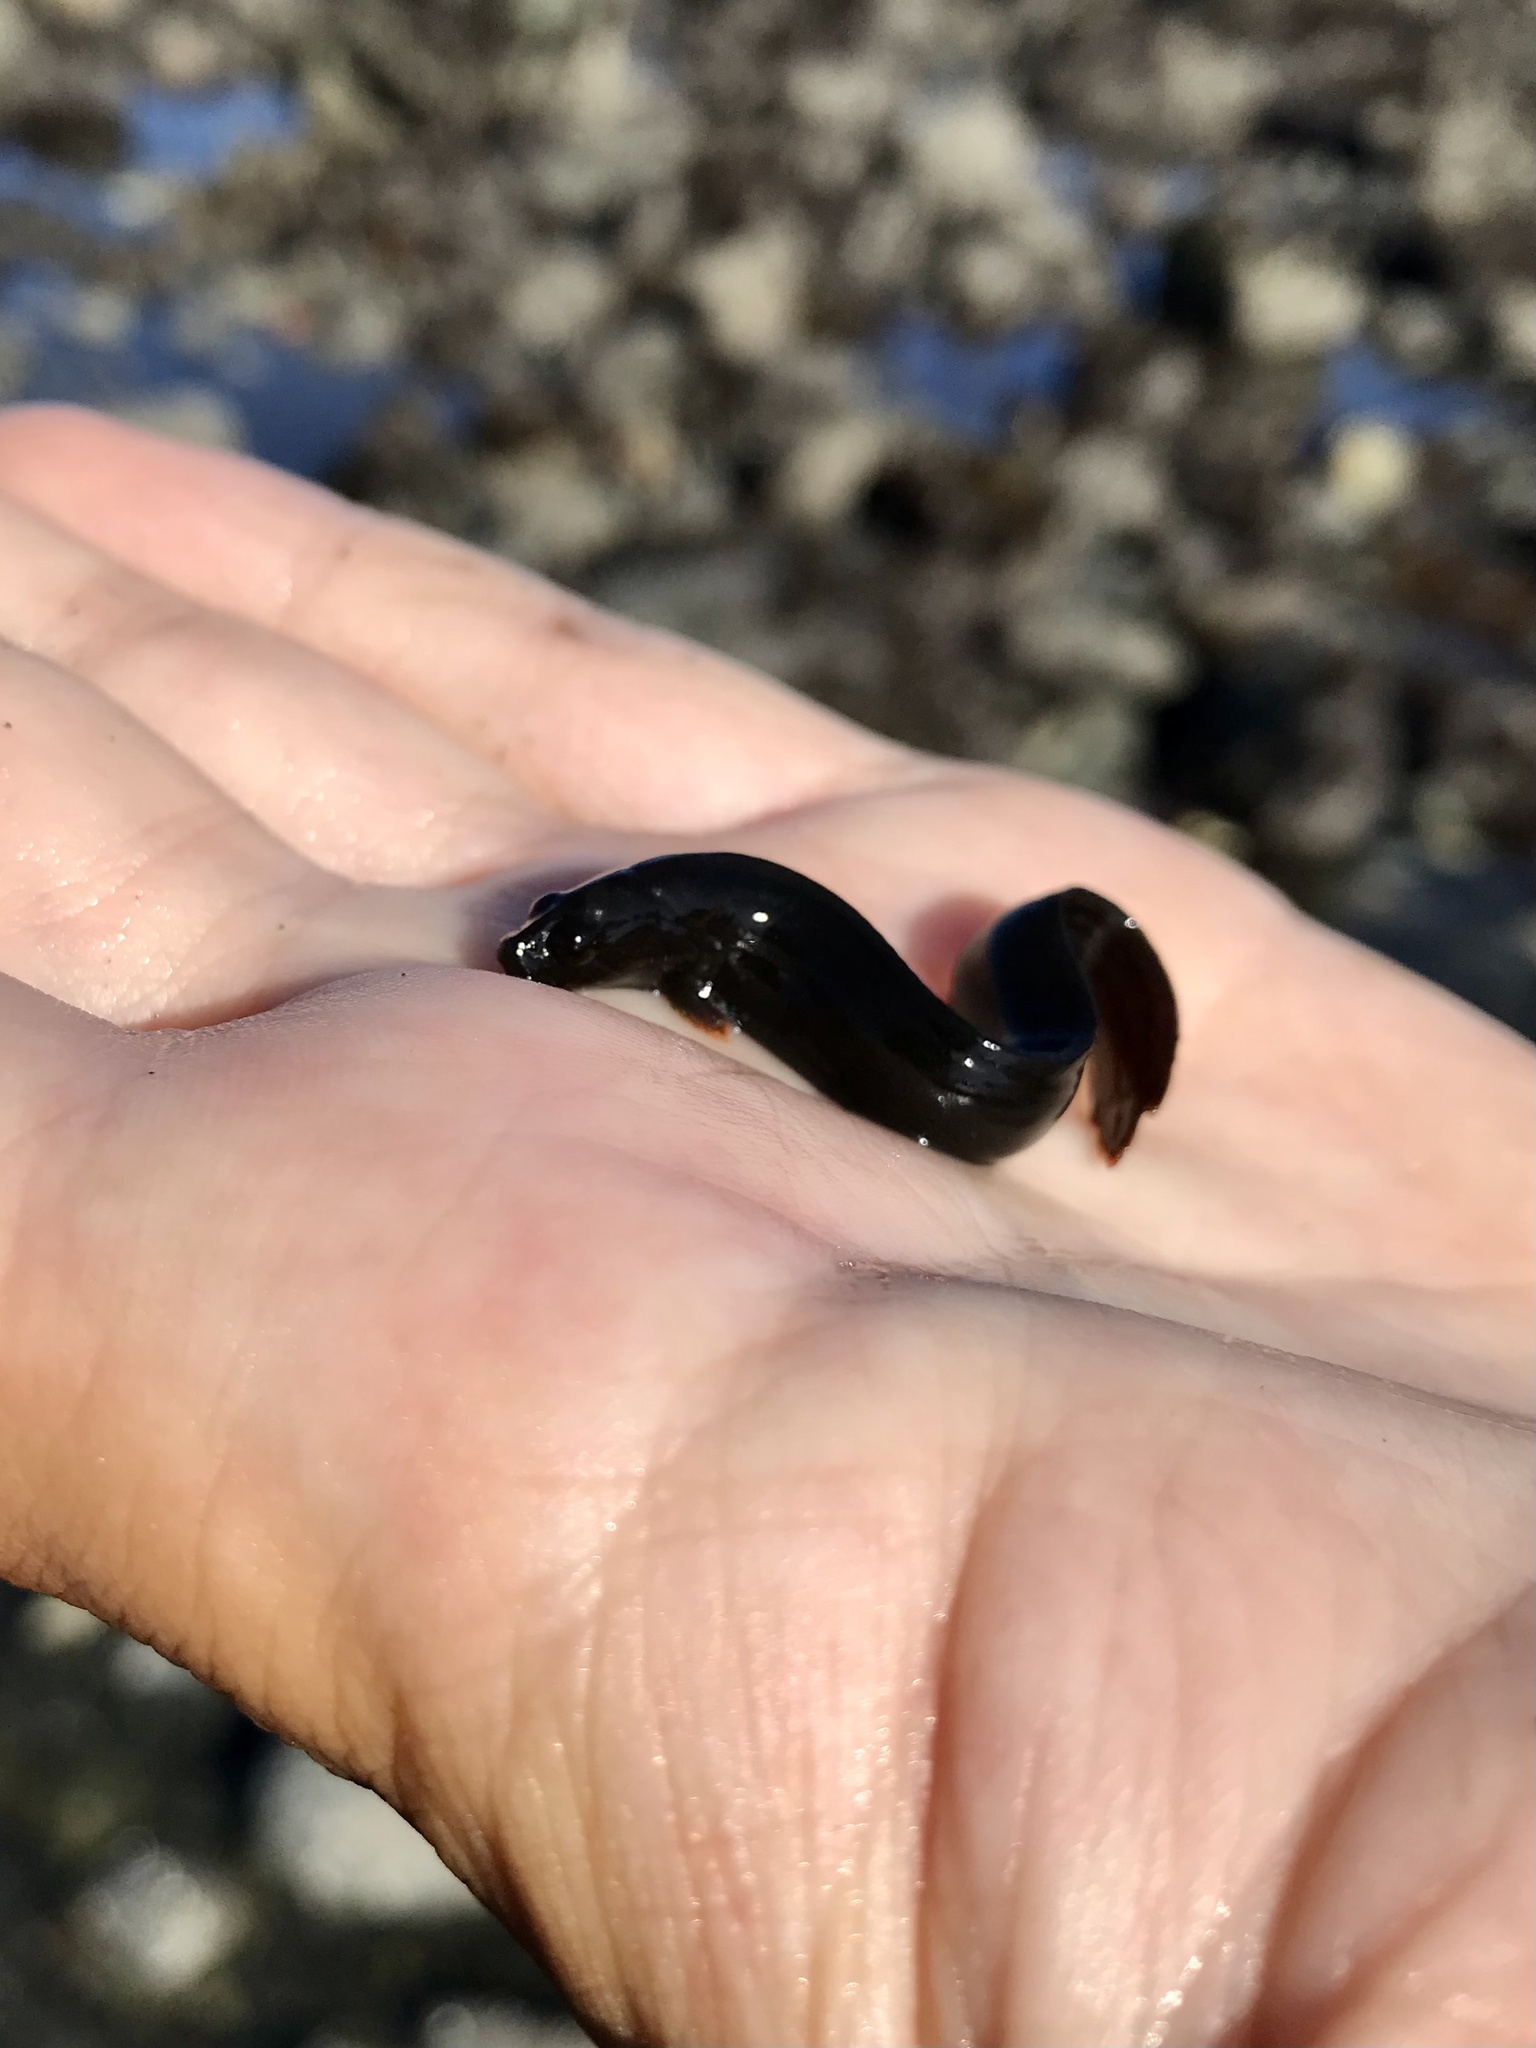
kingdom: Animalia
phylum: Chordata
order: Perciformes
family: Stichaeidae
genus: Cebidichthys
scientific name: Cebidichthys violaceus
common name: Monkeyface prickleback
